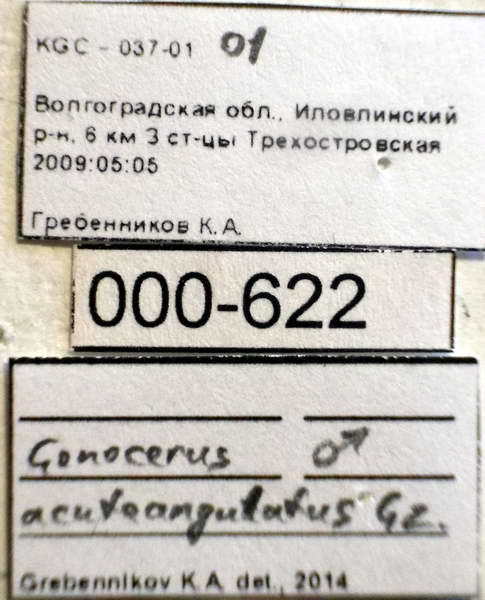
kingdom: Animalia
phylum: Arthropoda
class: Insecta
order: Hemiptera
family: Coreidae
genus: Gonocerus
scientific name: Gonocerus acuteangulatus
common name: Box bug
